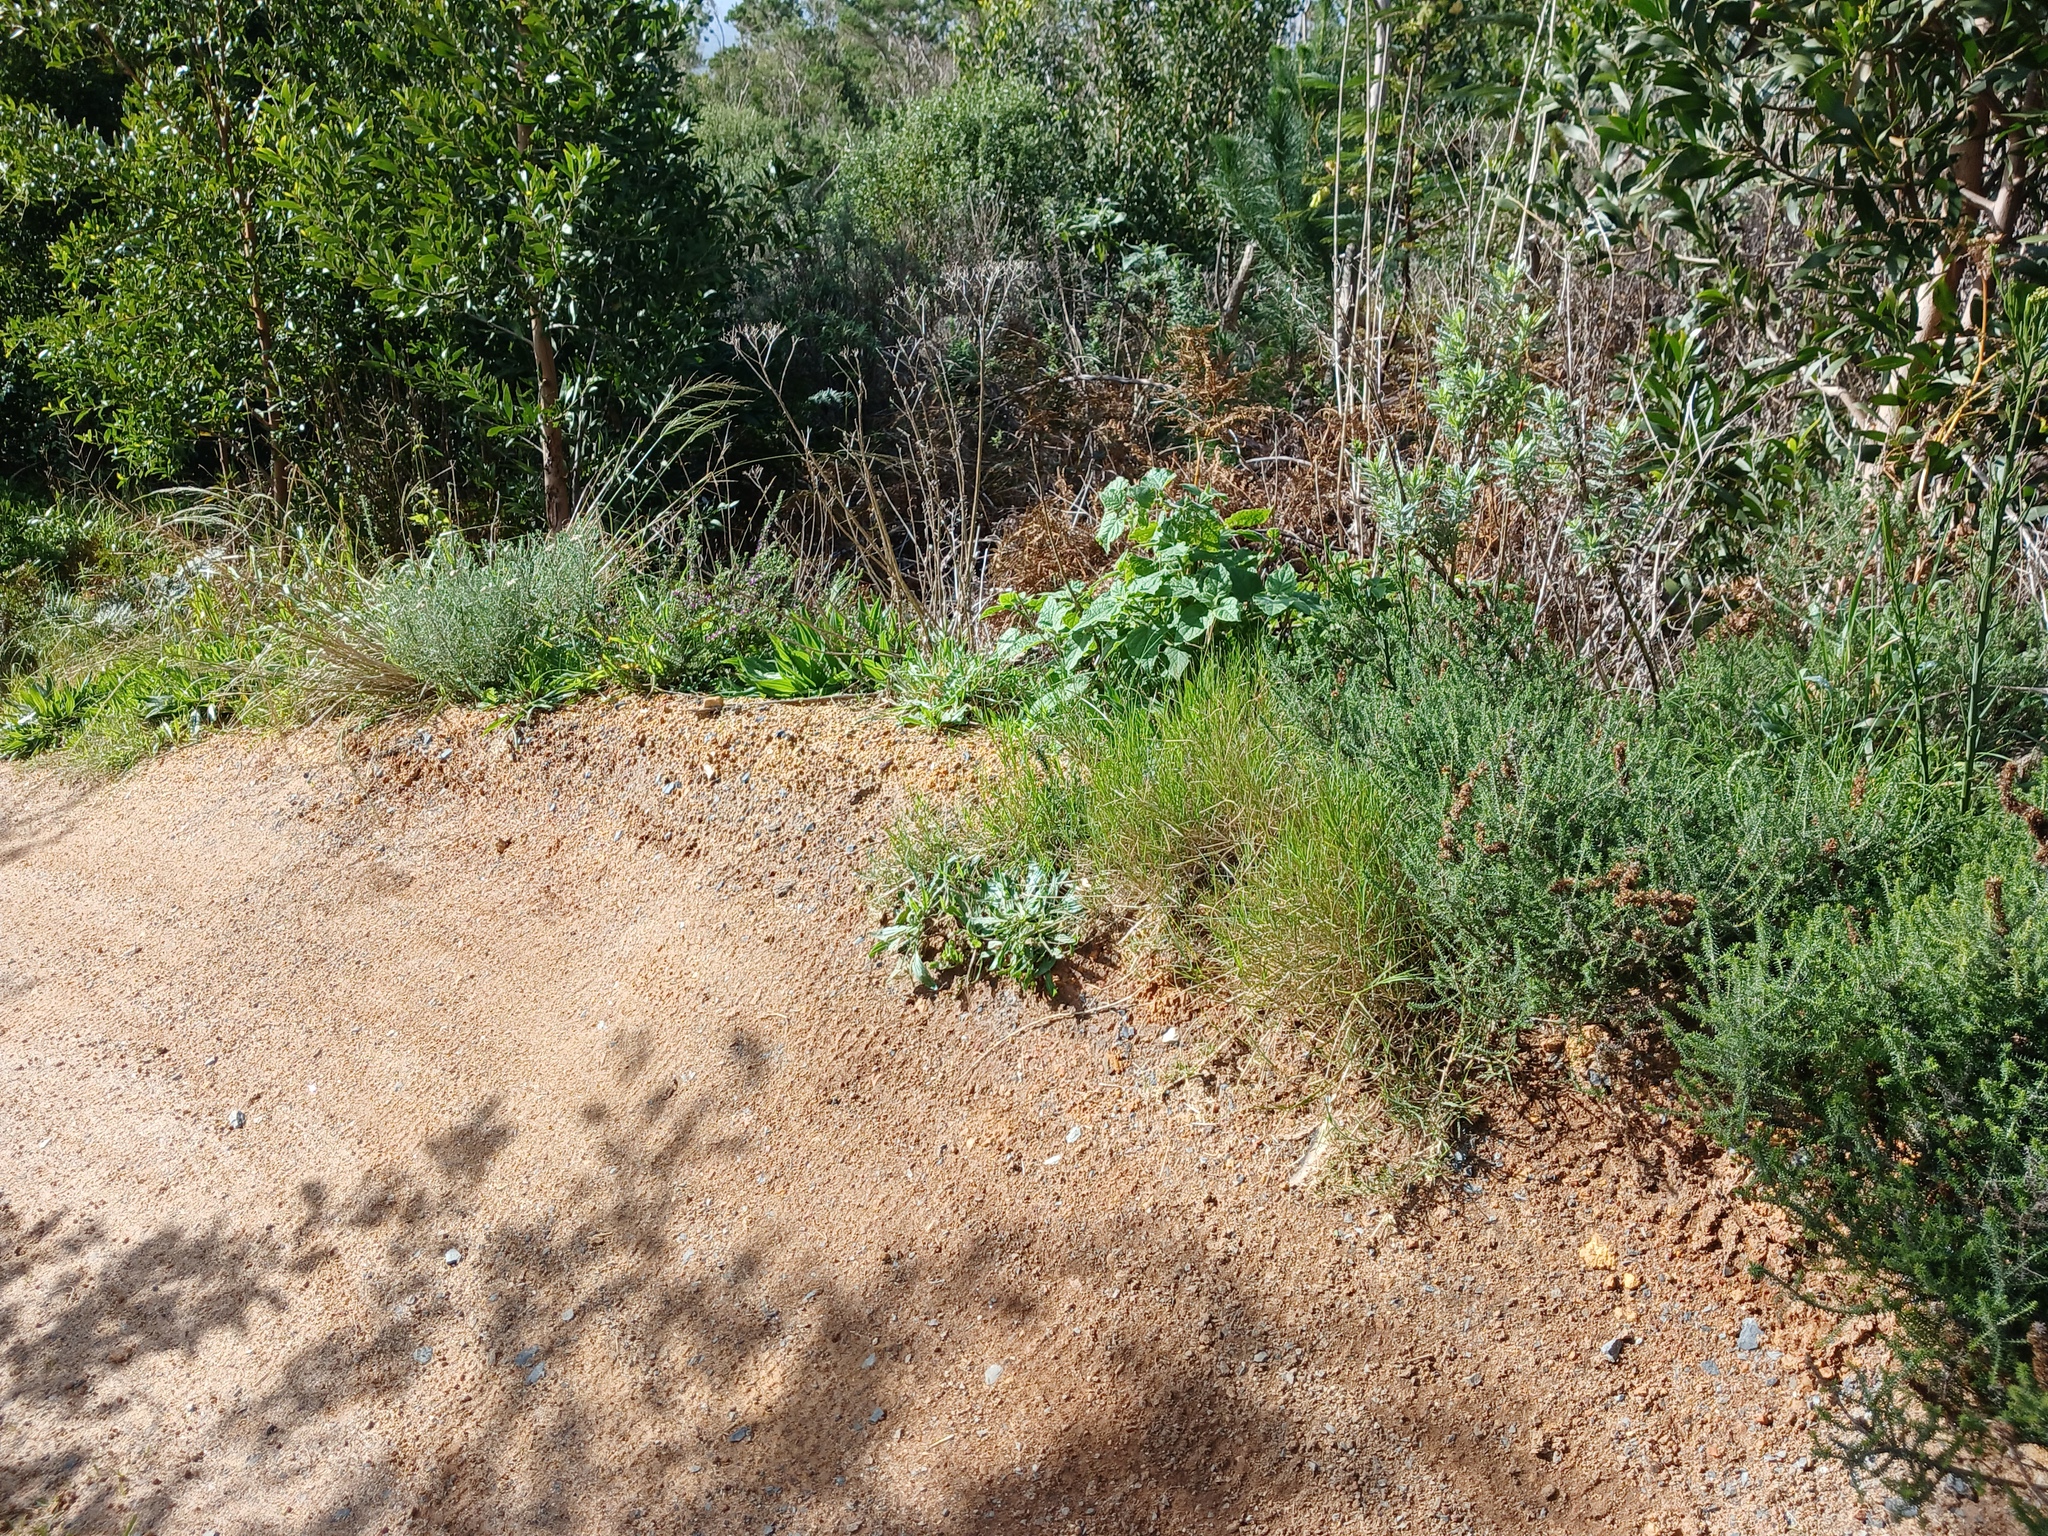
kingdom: Plantae
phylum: Tracheophyta
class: Magnoliopsida
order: Solanales
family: Solanaceae
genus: Physalis
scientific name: Physalis peruviana
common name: Cape-gooseberry
